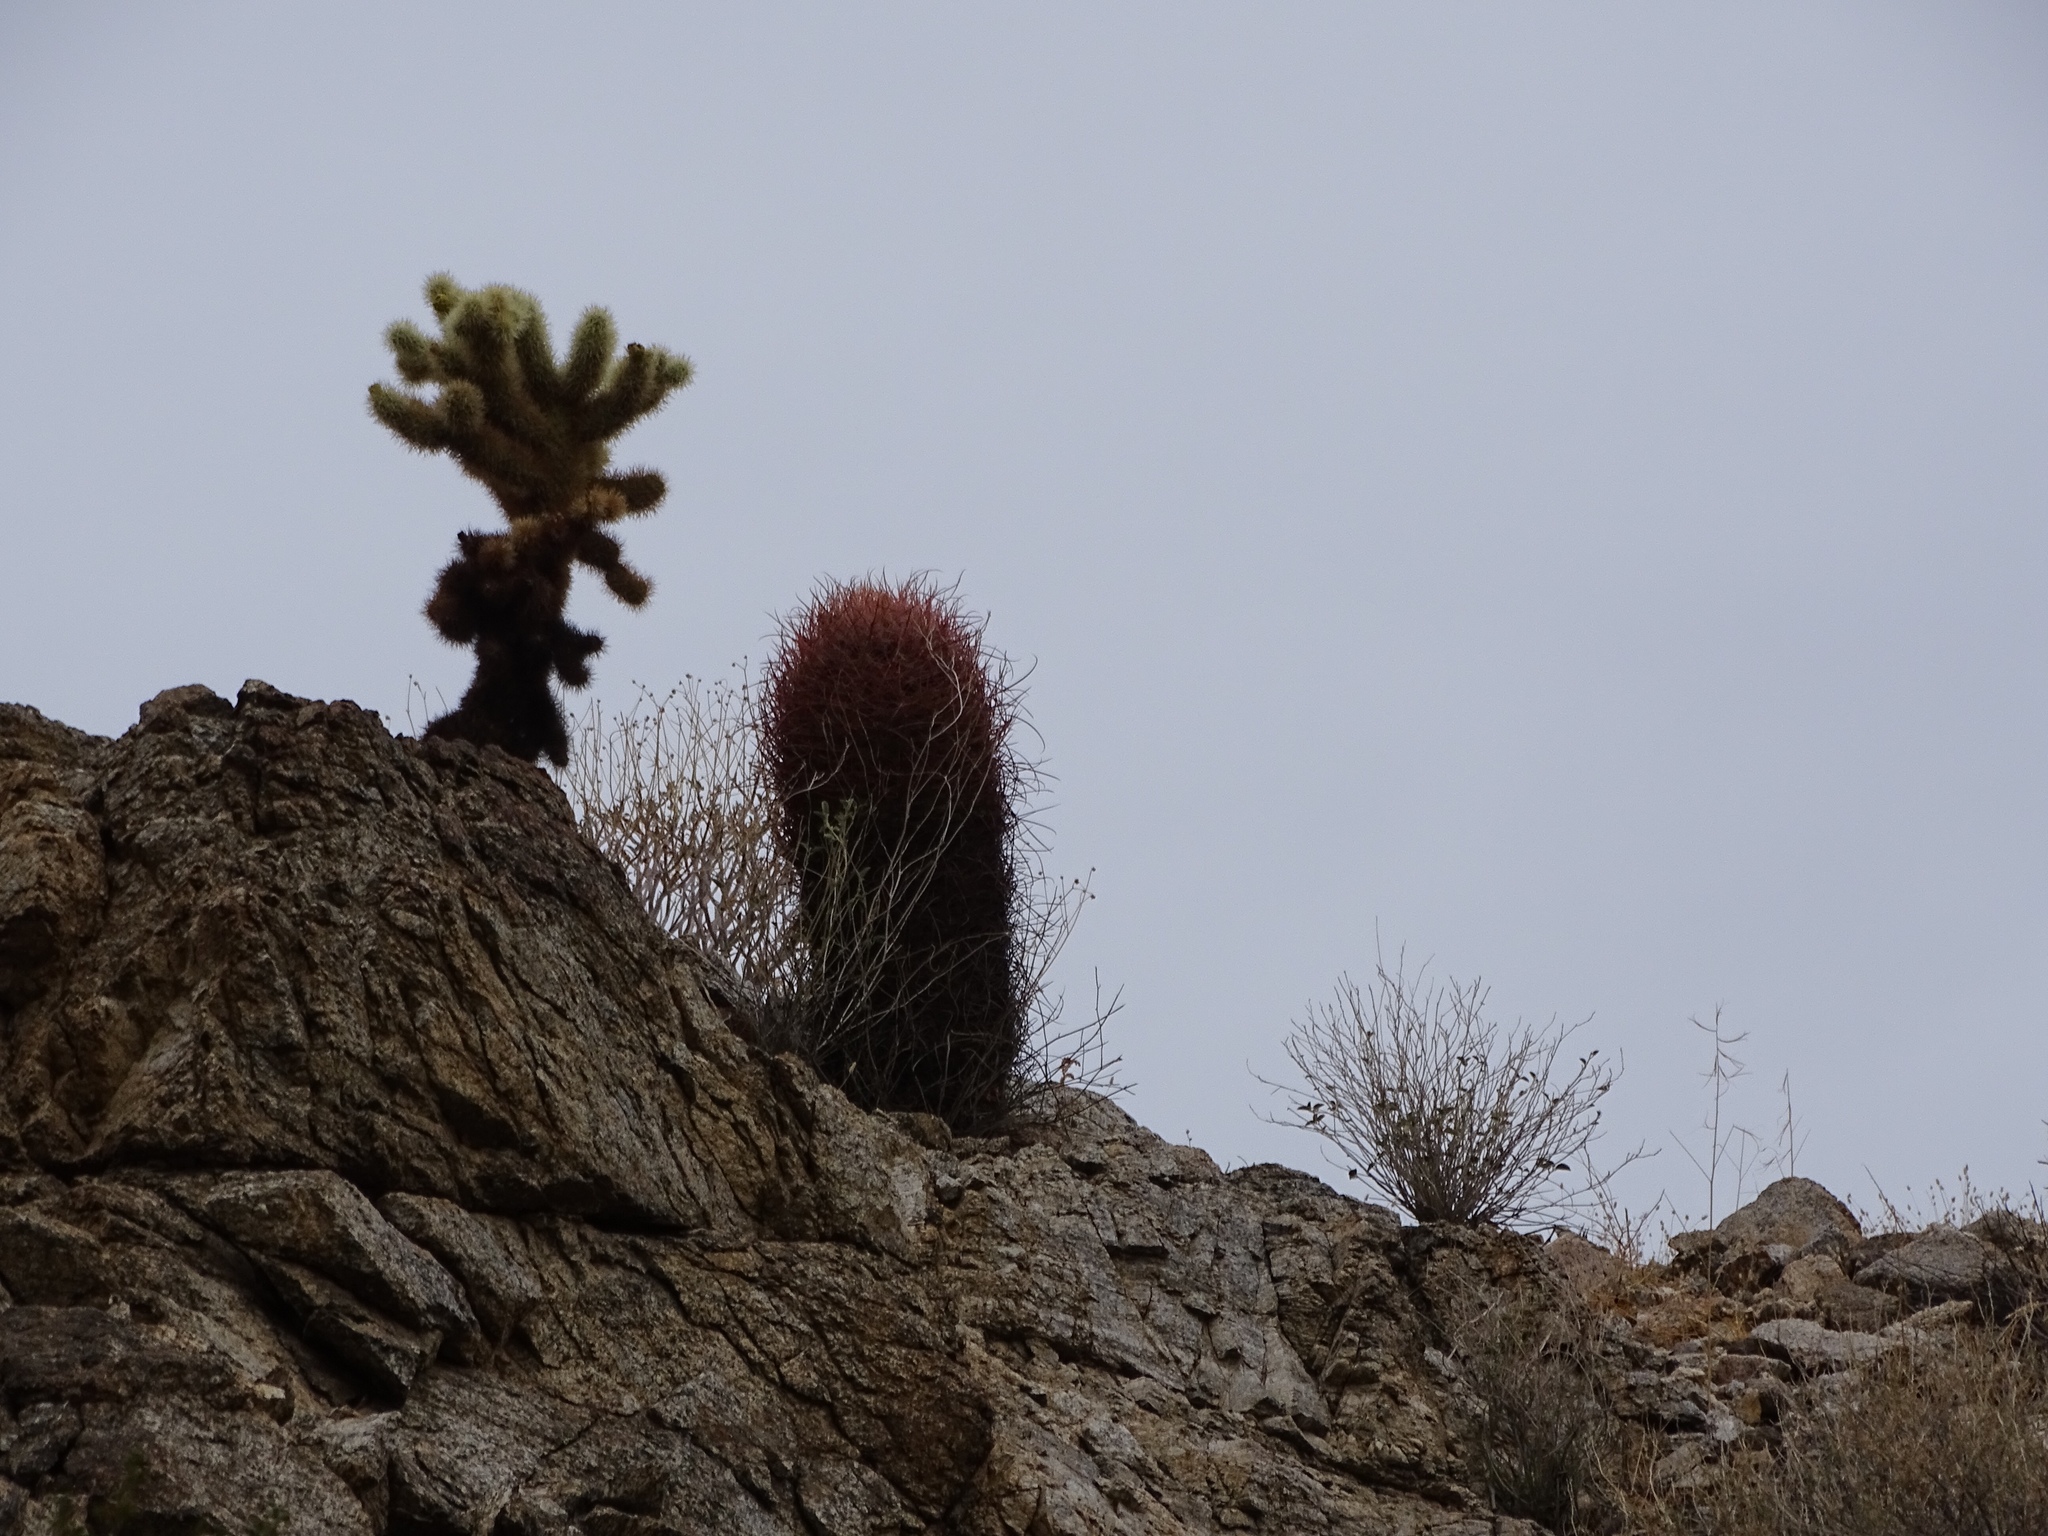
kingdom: Plantae
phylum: Tracheophyta
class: Magnoliopsida
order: Caryophyllales
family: Cactaceae
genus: Cylindropuntia
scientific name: Cylindropuntia fosbergii
